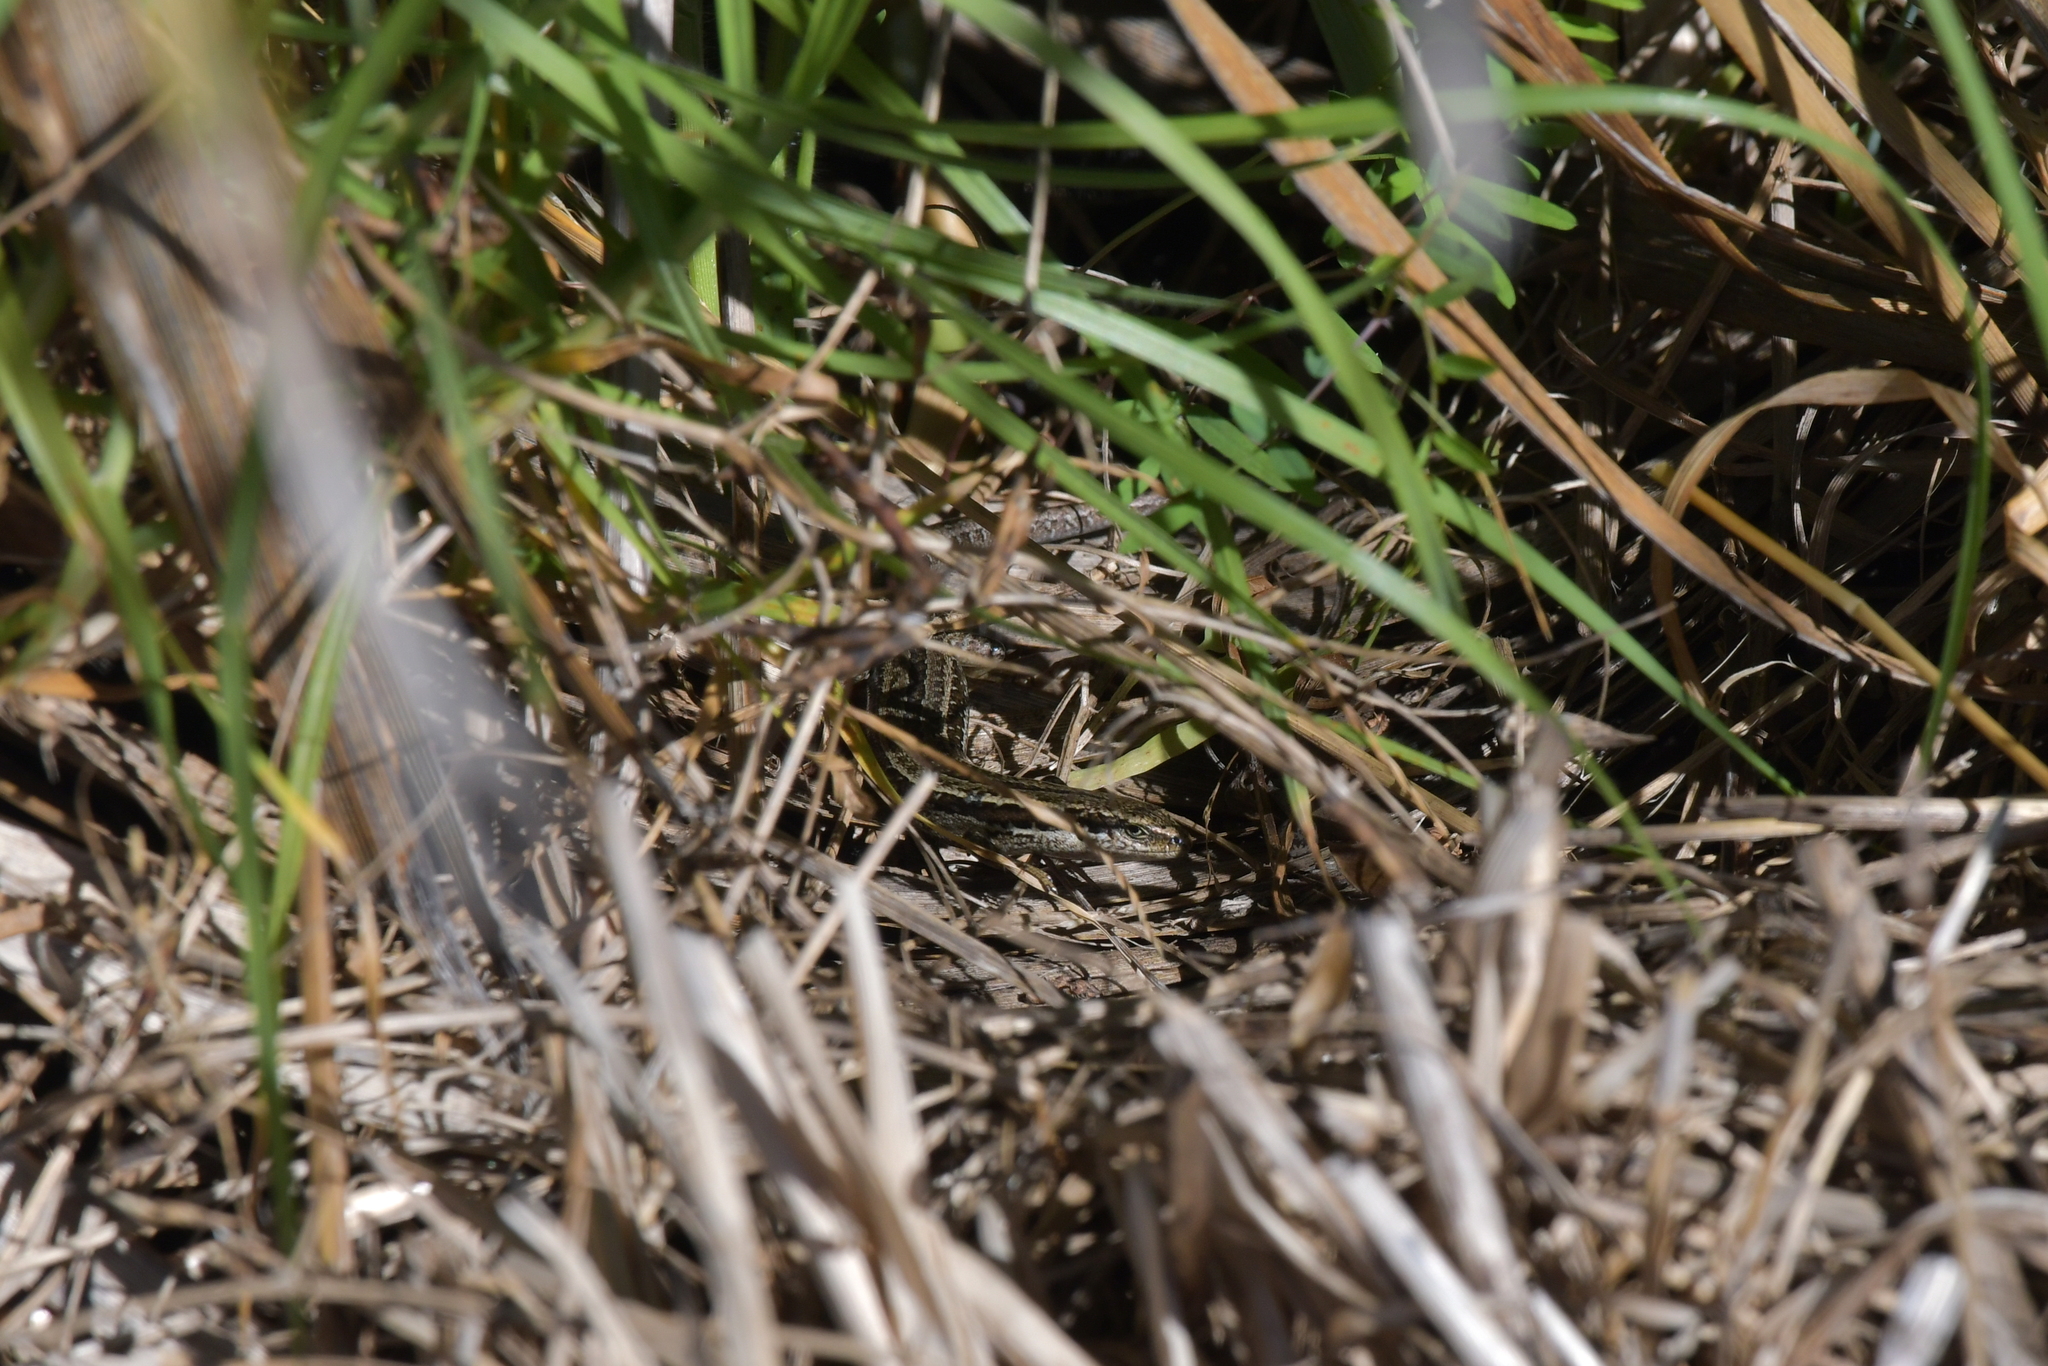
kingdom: Animalia
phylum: Chordata
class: Squamata
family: Scincidae
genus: Oligosoma
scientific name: Oligosoma polychroma
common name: Common new zealand skink
